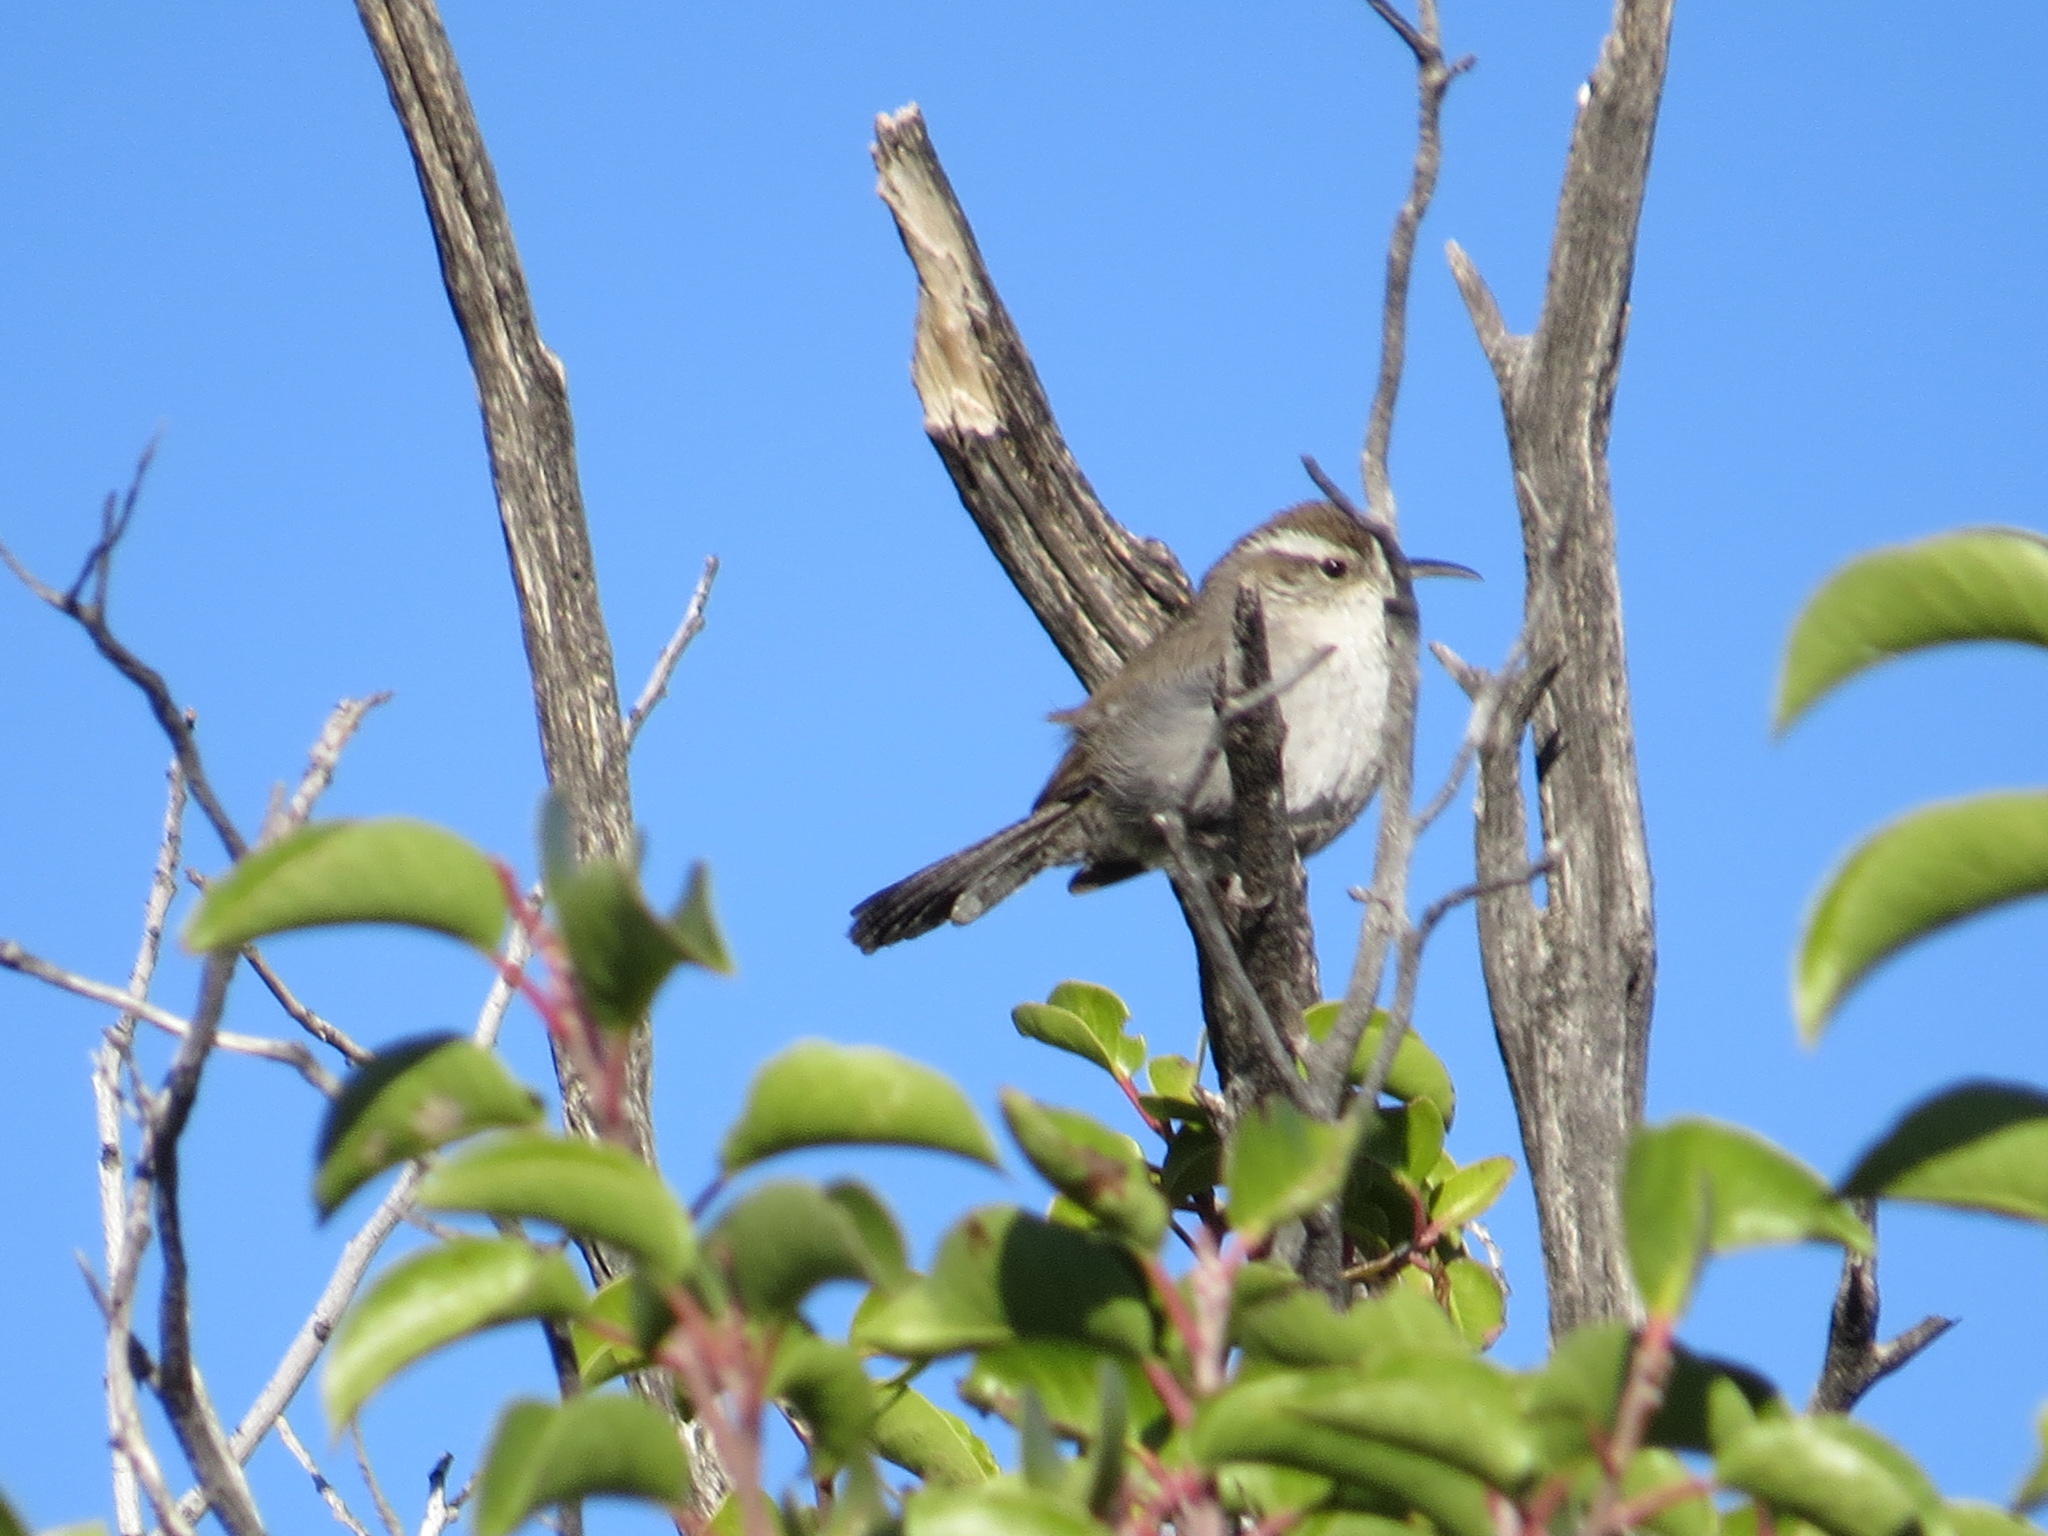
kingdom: Animalia
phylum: Chordata
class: Aves
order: Passeriformes
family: Troglodytidae
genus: Thryomanes
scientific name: Thryomanes bewickii
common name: Bewick's wren
